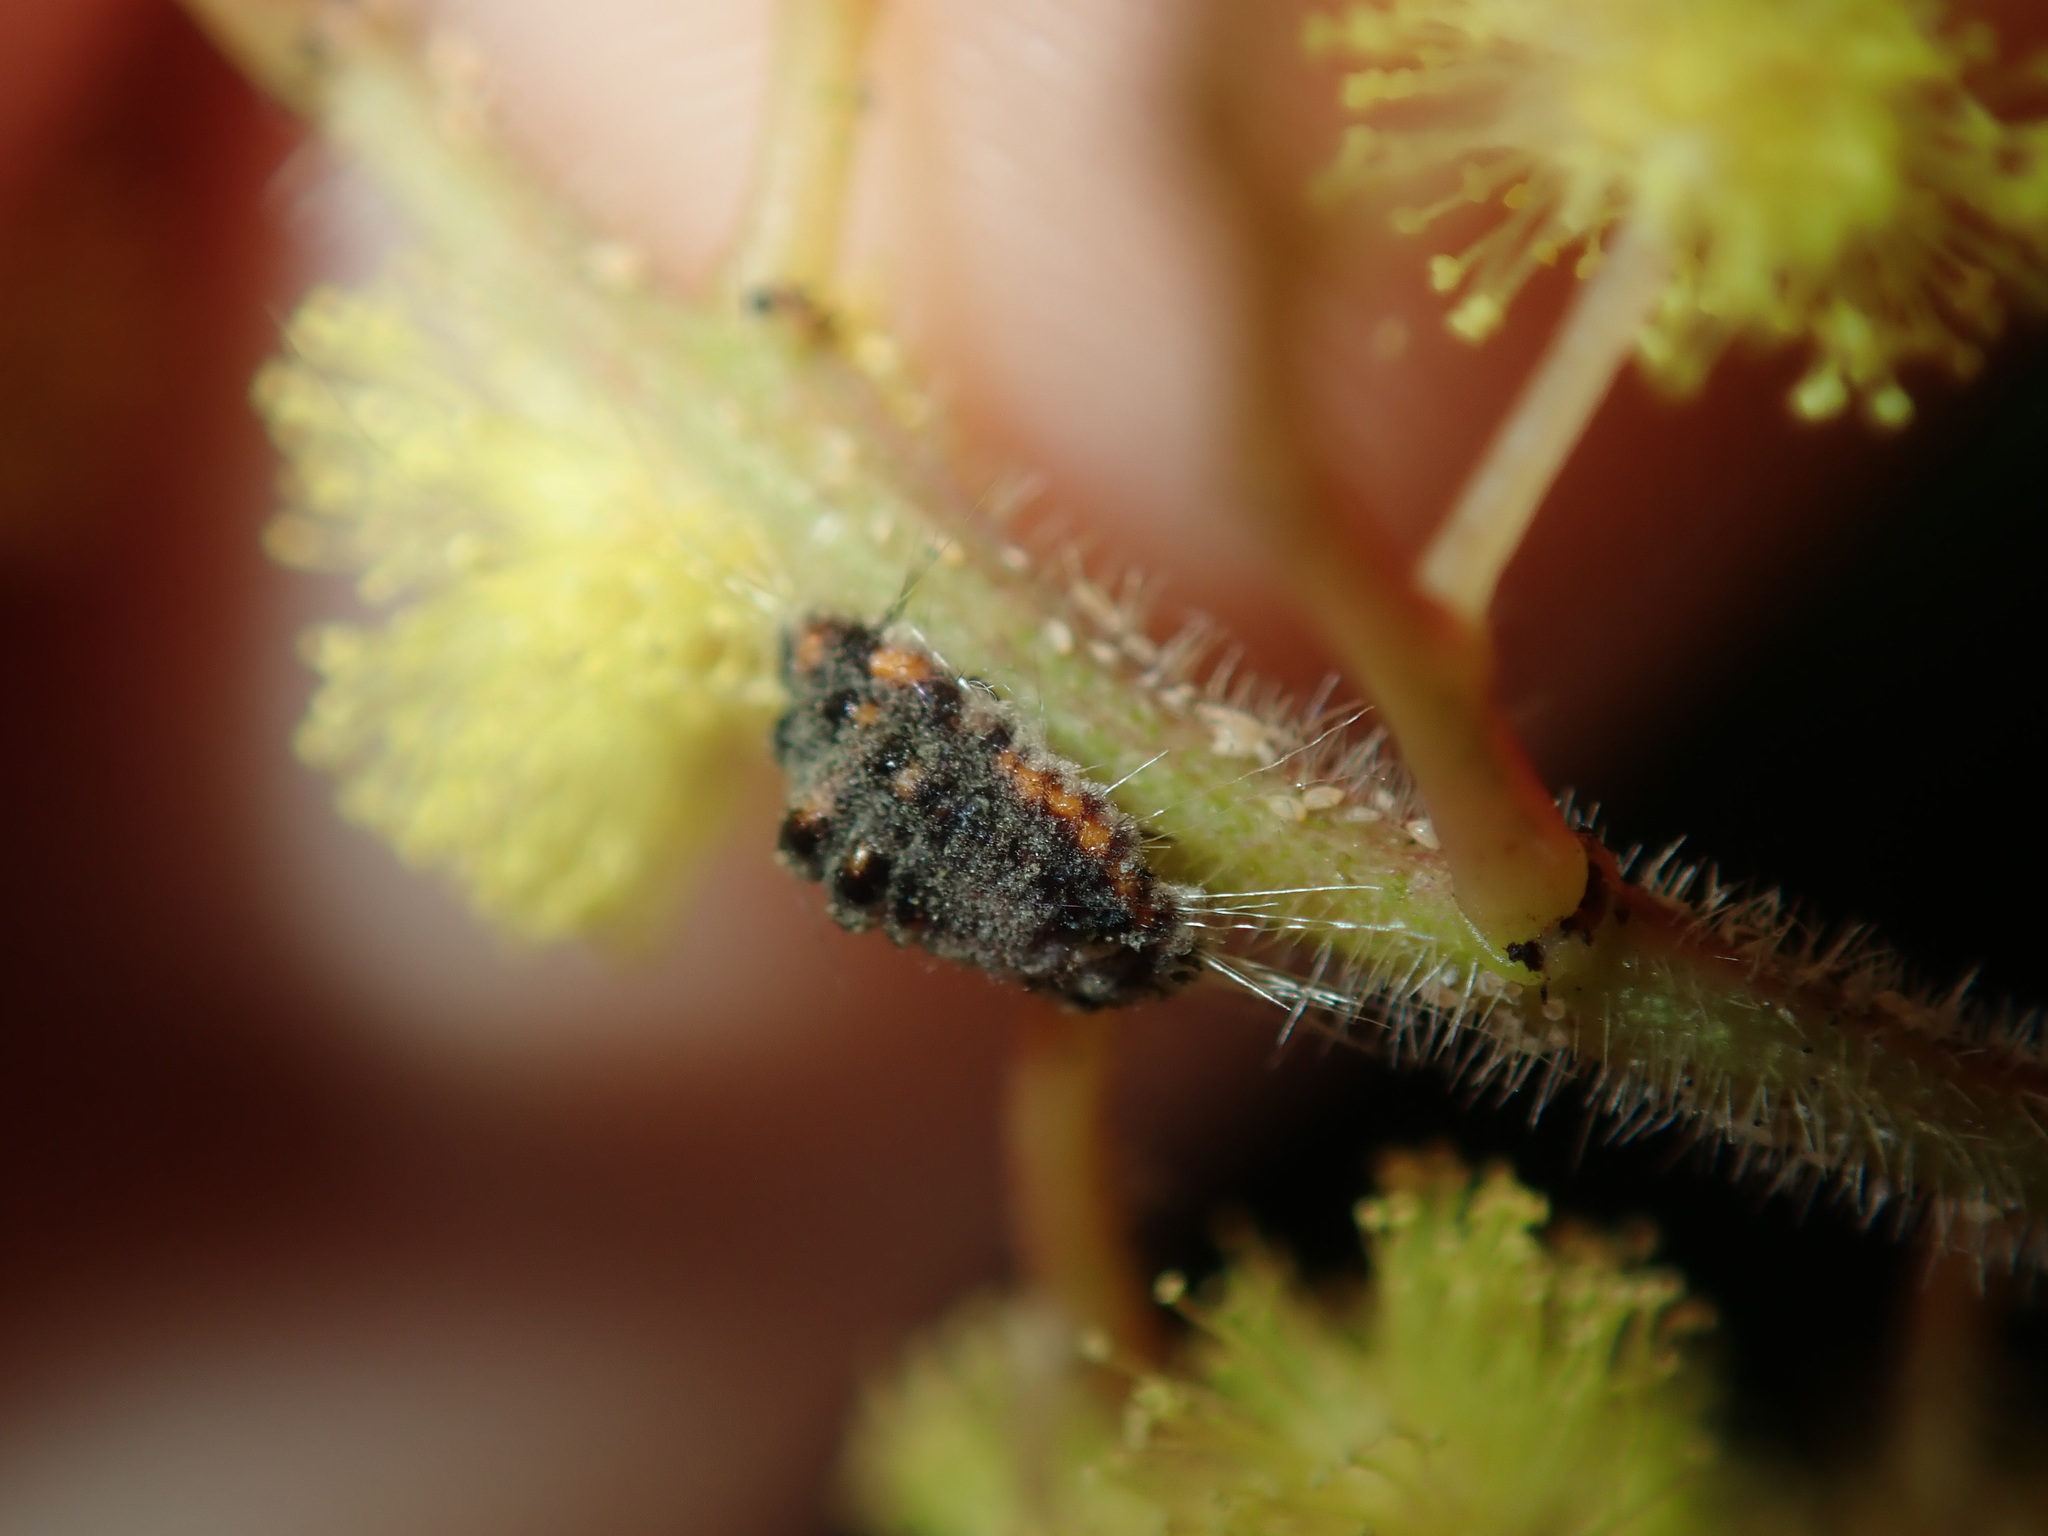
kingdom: Animalia
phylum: Arthropoda
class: Insecta
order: Hemiptera
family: Margarodidae
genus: Icerya
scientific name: Icerya
